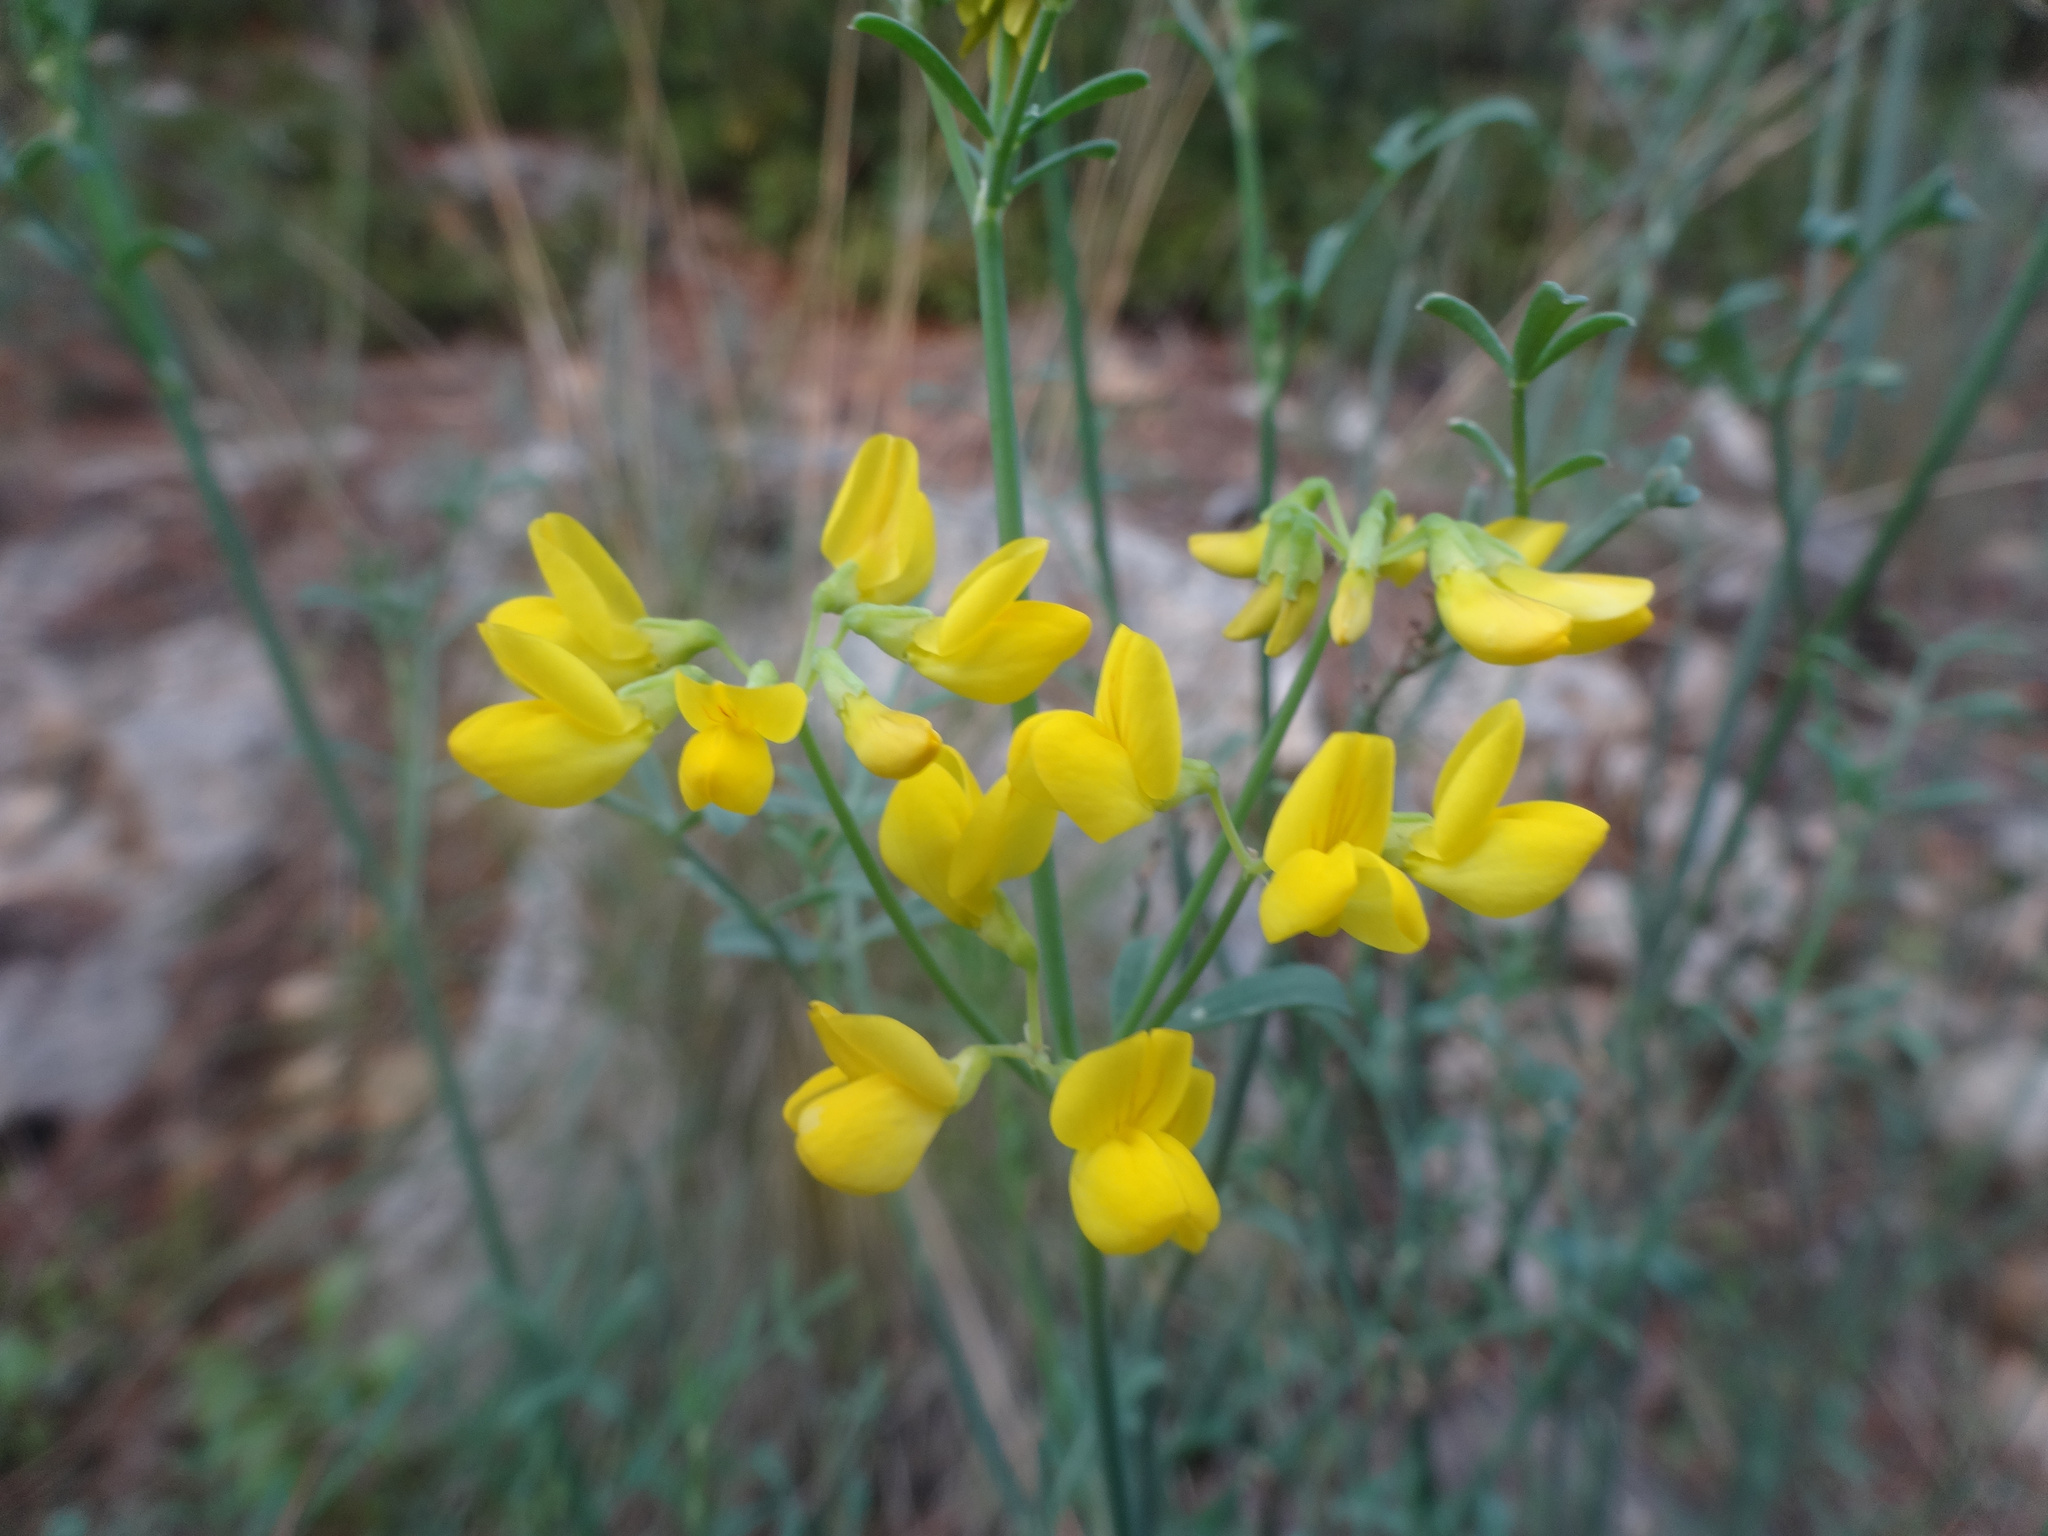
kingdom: Plantae
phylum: Tracheophyta
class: Magnoliopsida
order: Fabales
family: Fabaceae
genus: Coronilla
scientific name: Coronilla juncea
